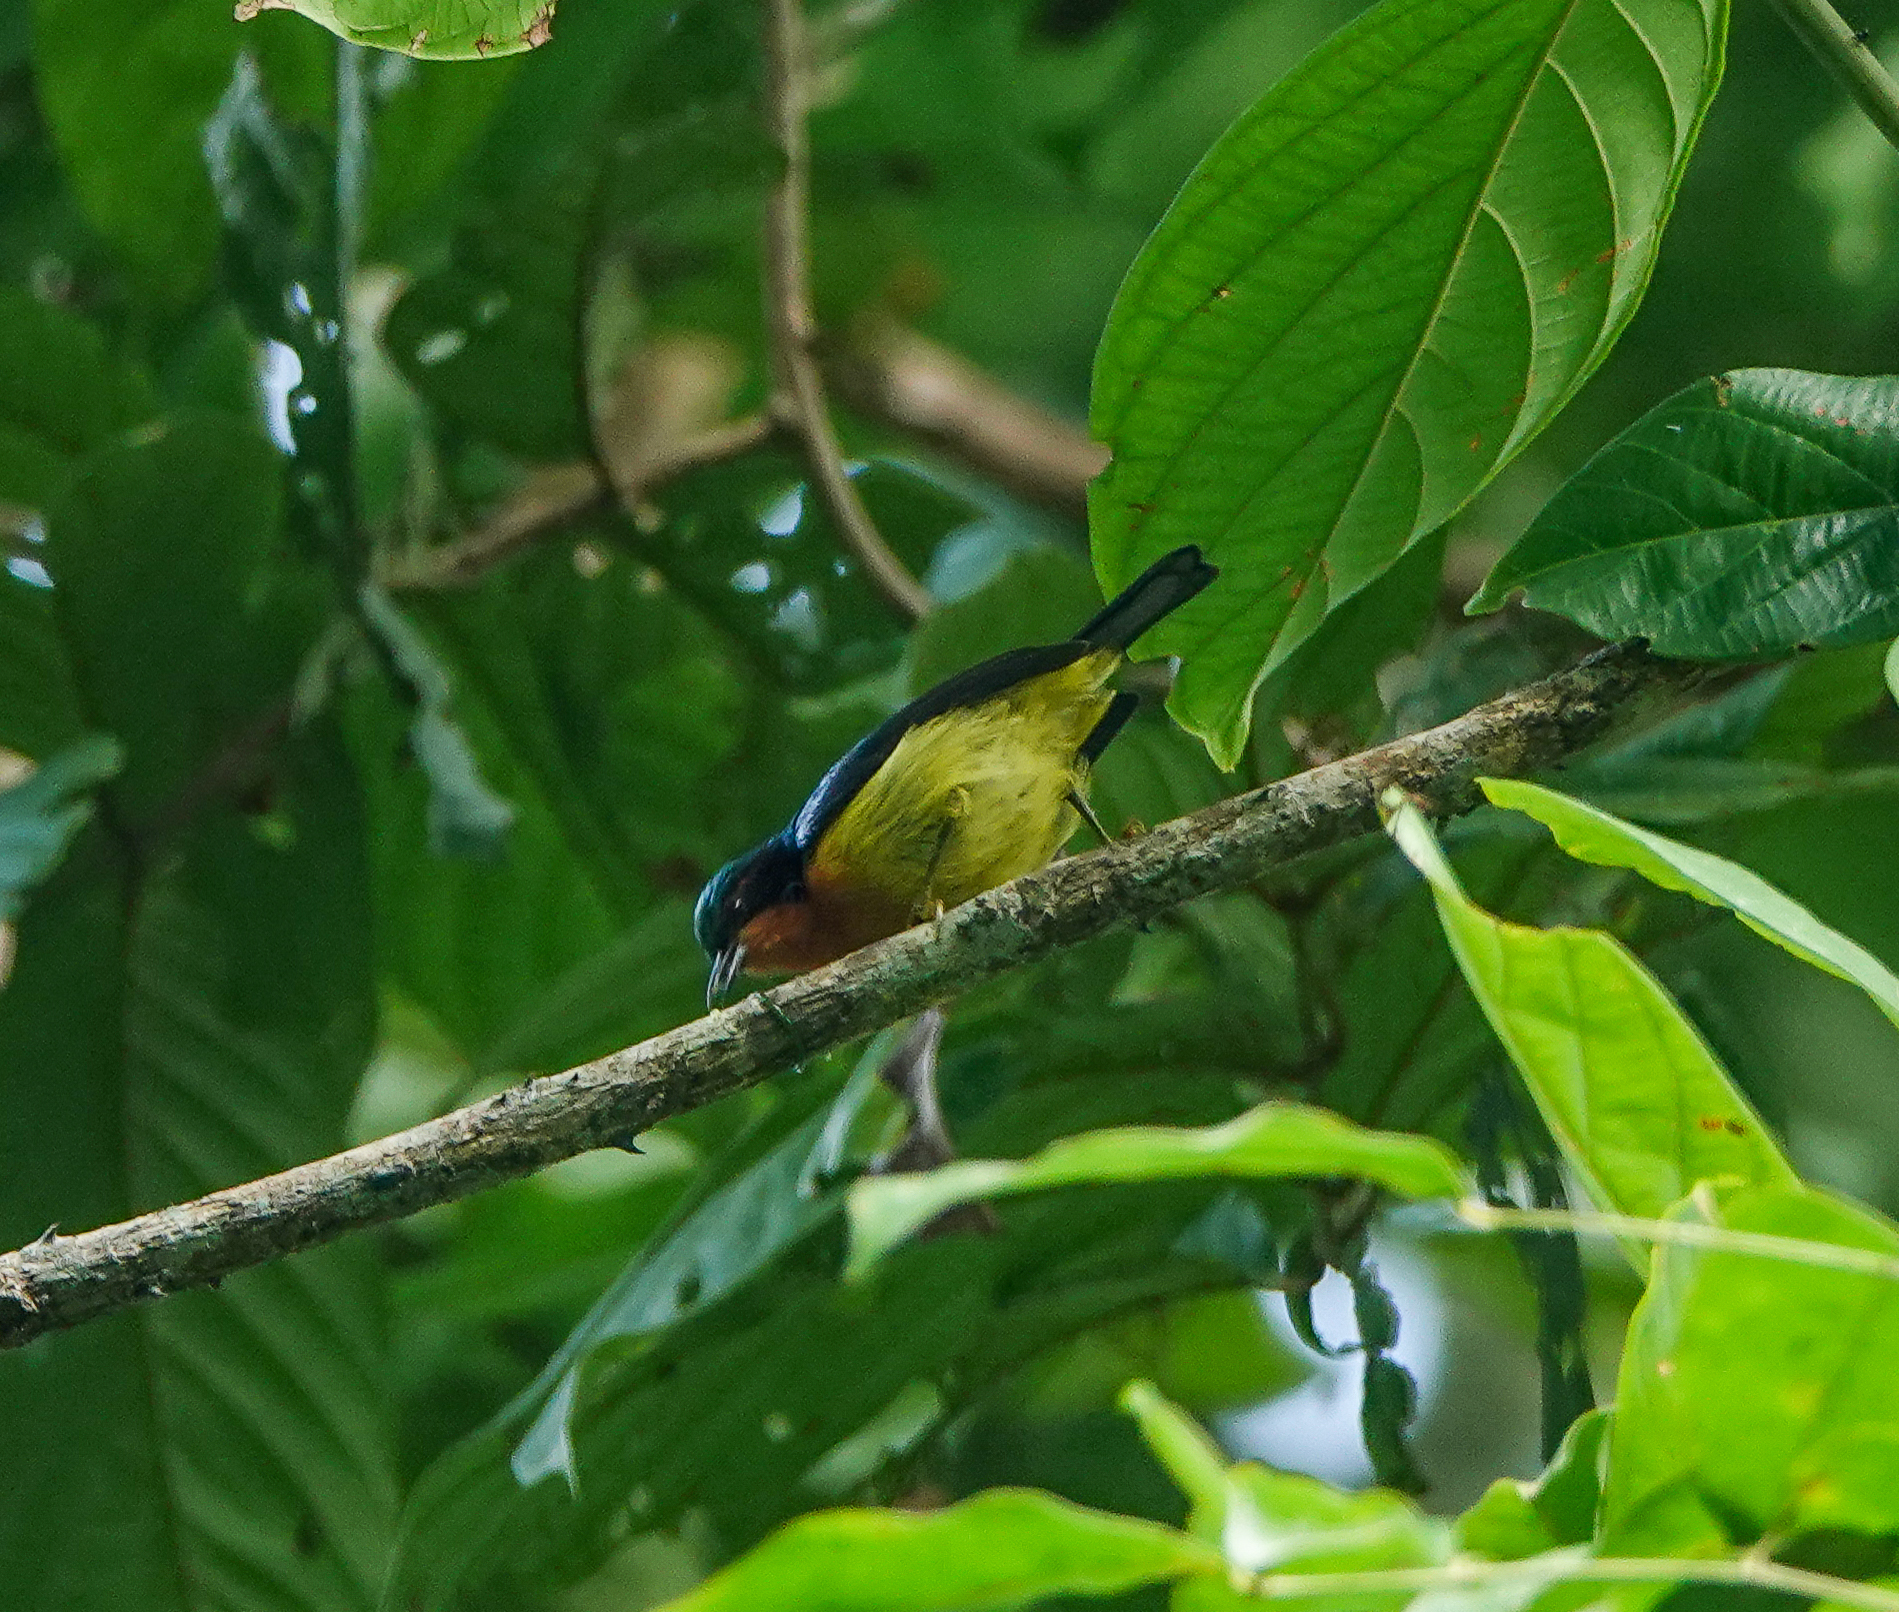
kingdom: Animalia
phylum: Chordata
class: Aves
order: Passeriformes
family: Nectariniidae
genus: Chalcoparia
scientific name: Chalcoparia singalensis
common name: Ruby-cheeked sunbird
